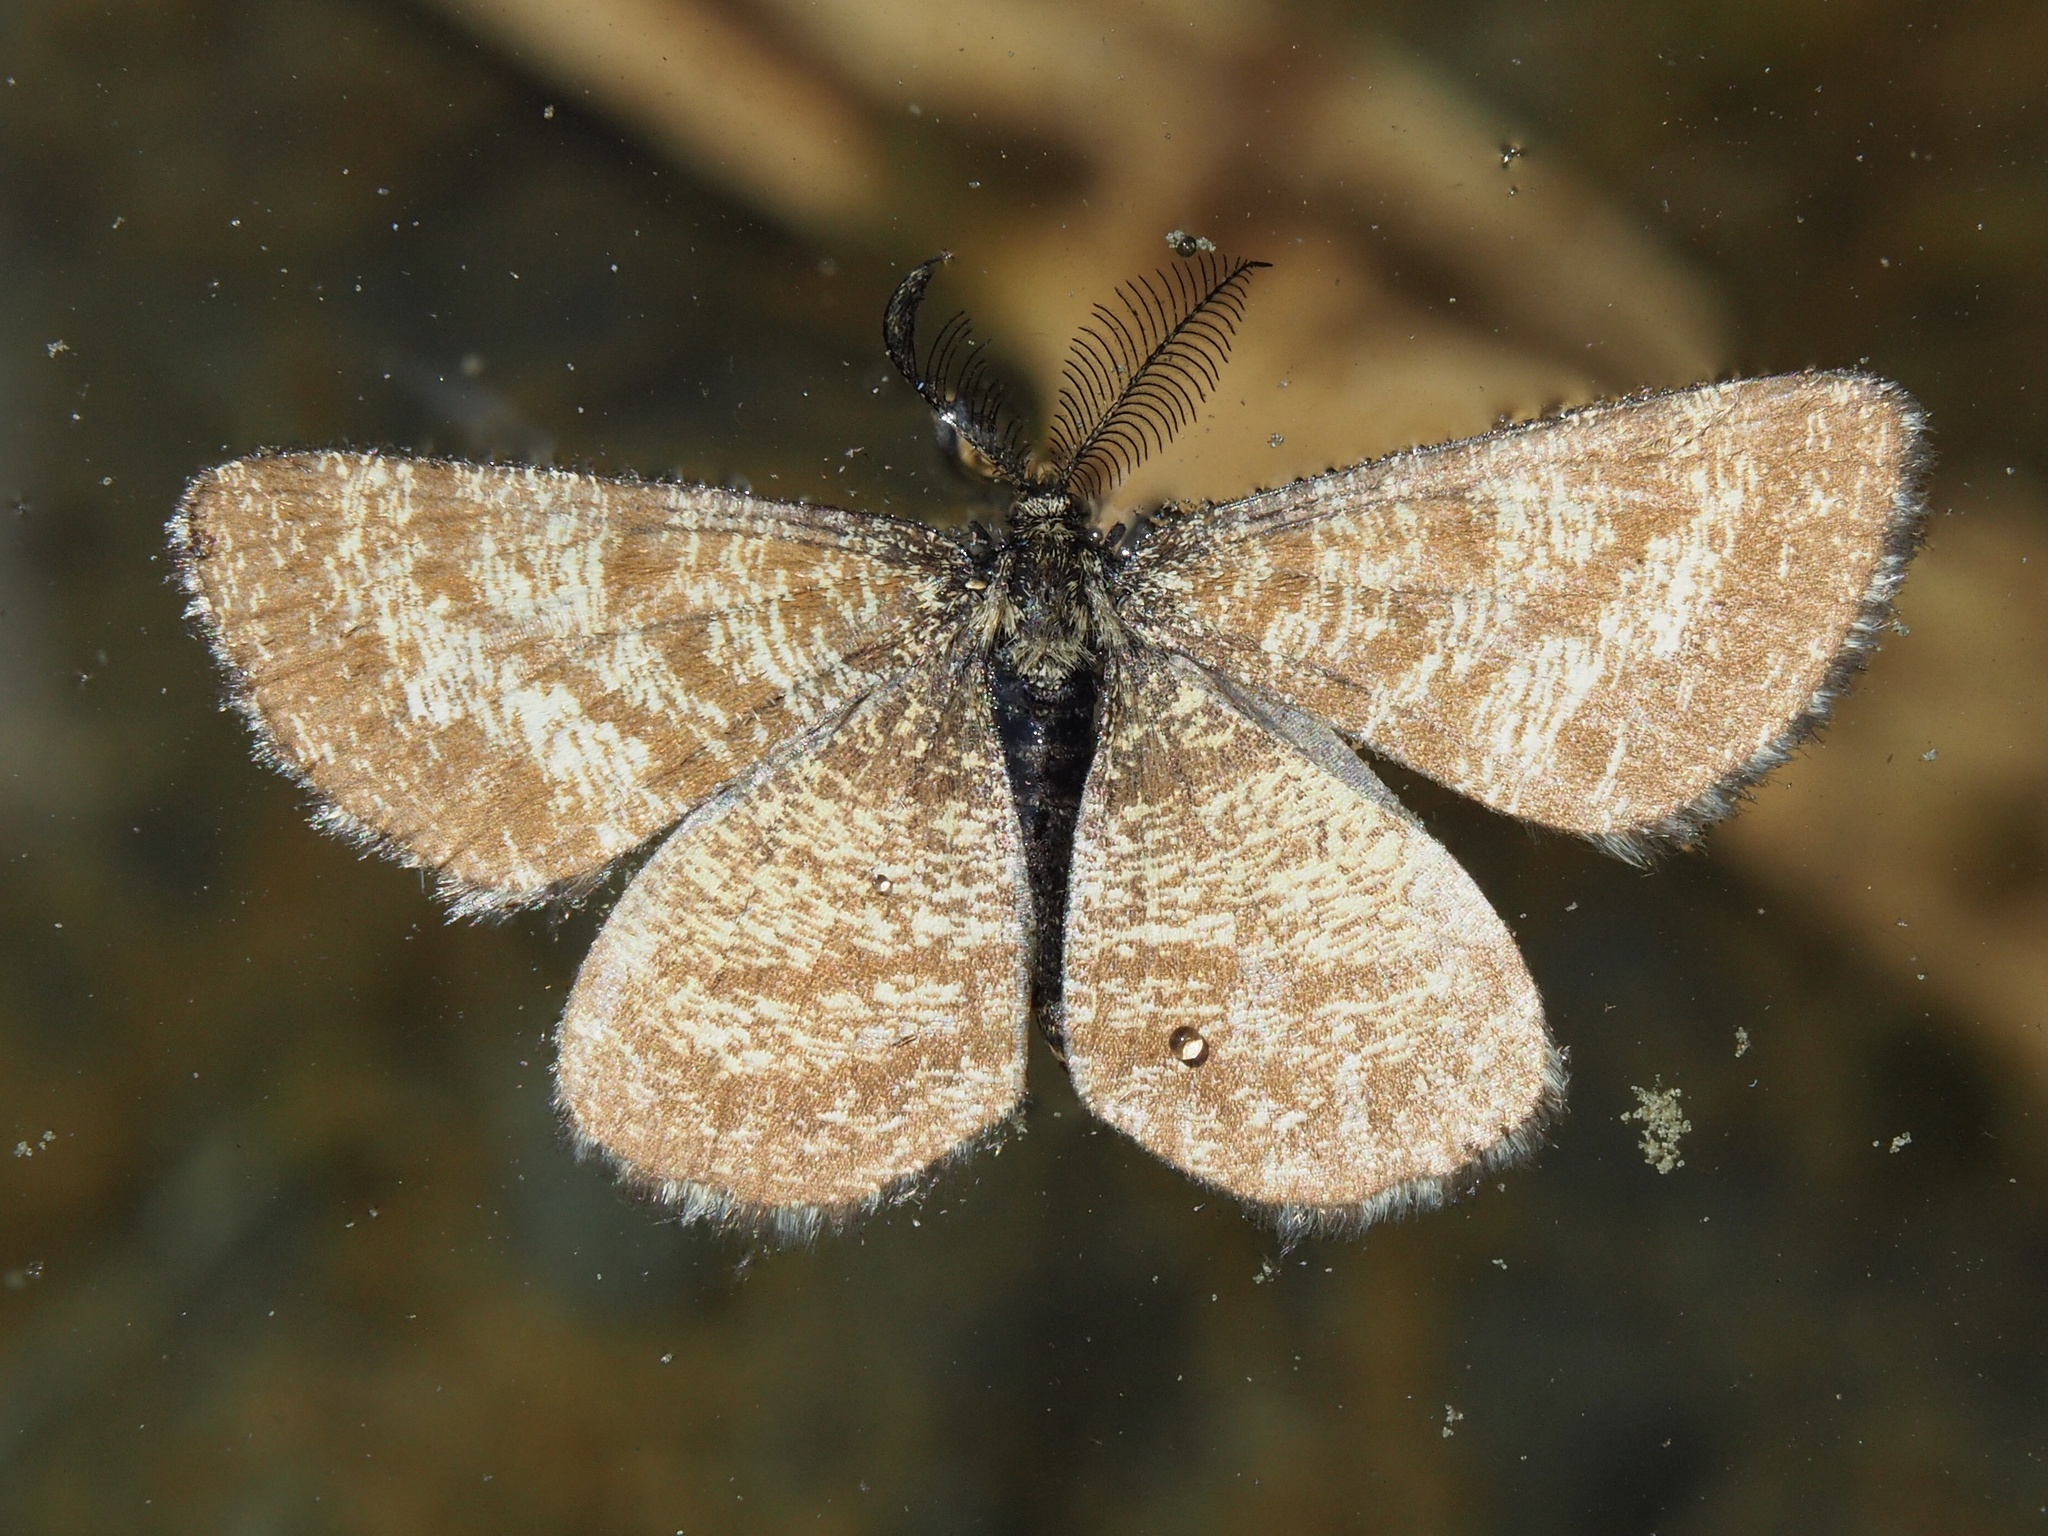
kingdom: Animalia
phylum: Arthropoda
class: Insecta
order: Lepidoptera
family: Geometridae
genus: Ematurga
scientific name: Ematurga atomaria
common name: Common heath
